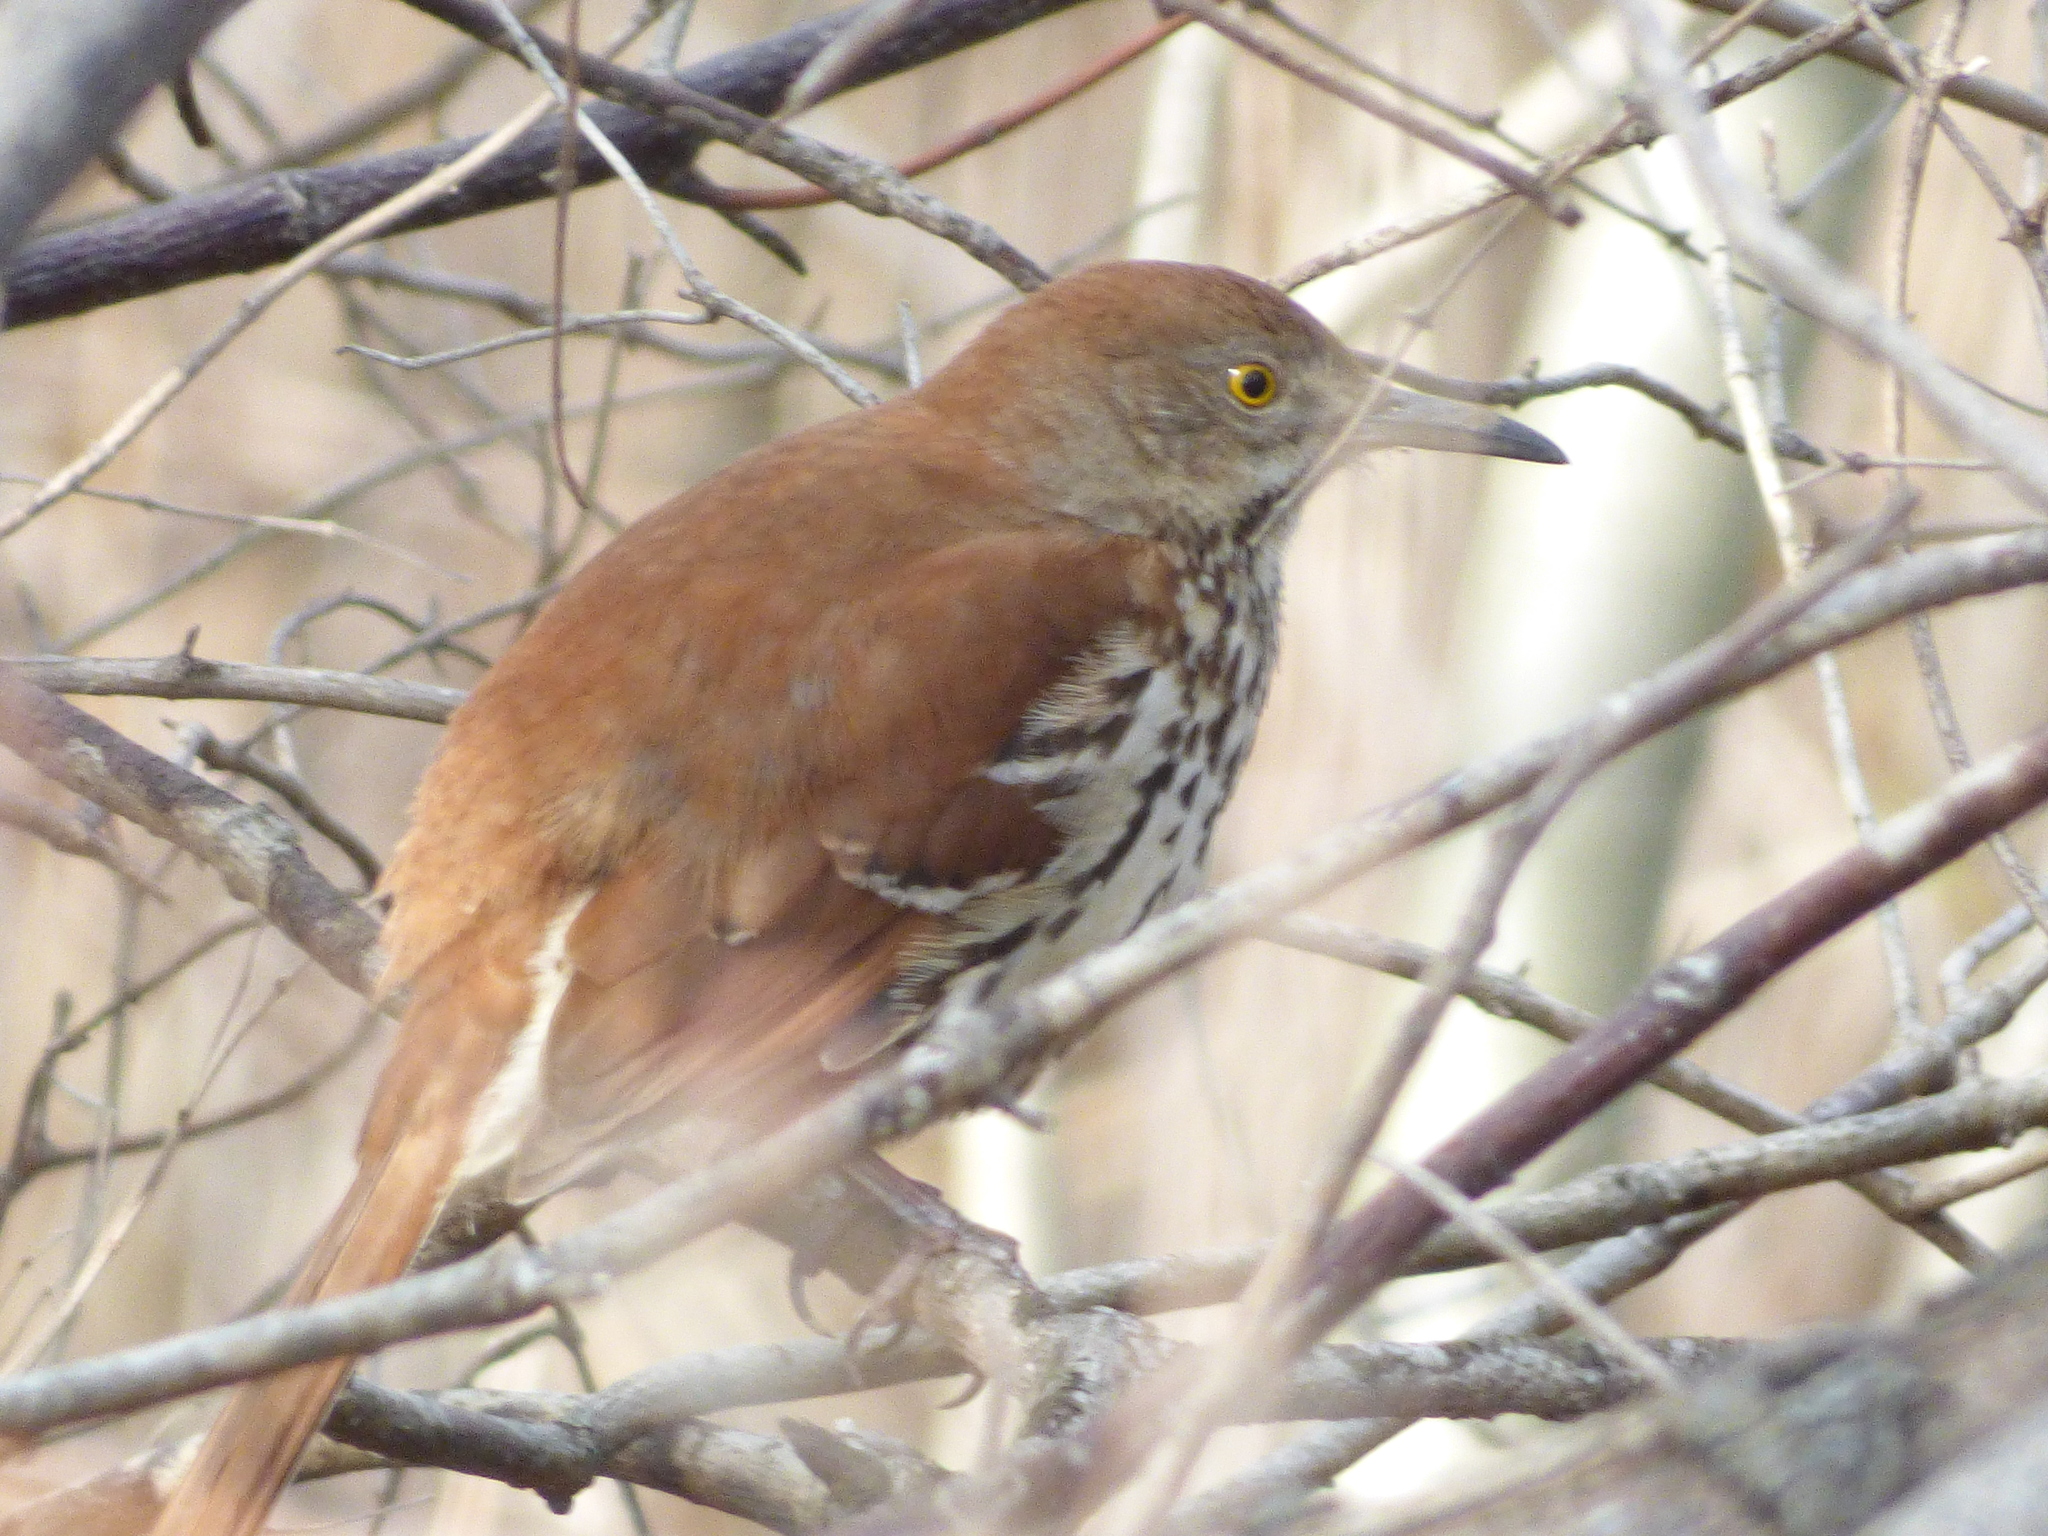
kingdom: Animalia
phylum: Chordata
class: Aves
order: Passeriformes
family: Mimidae
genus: Toxostoma
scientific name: Toxostoma rufum
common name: Brown thrasher
